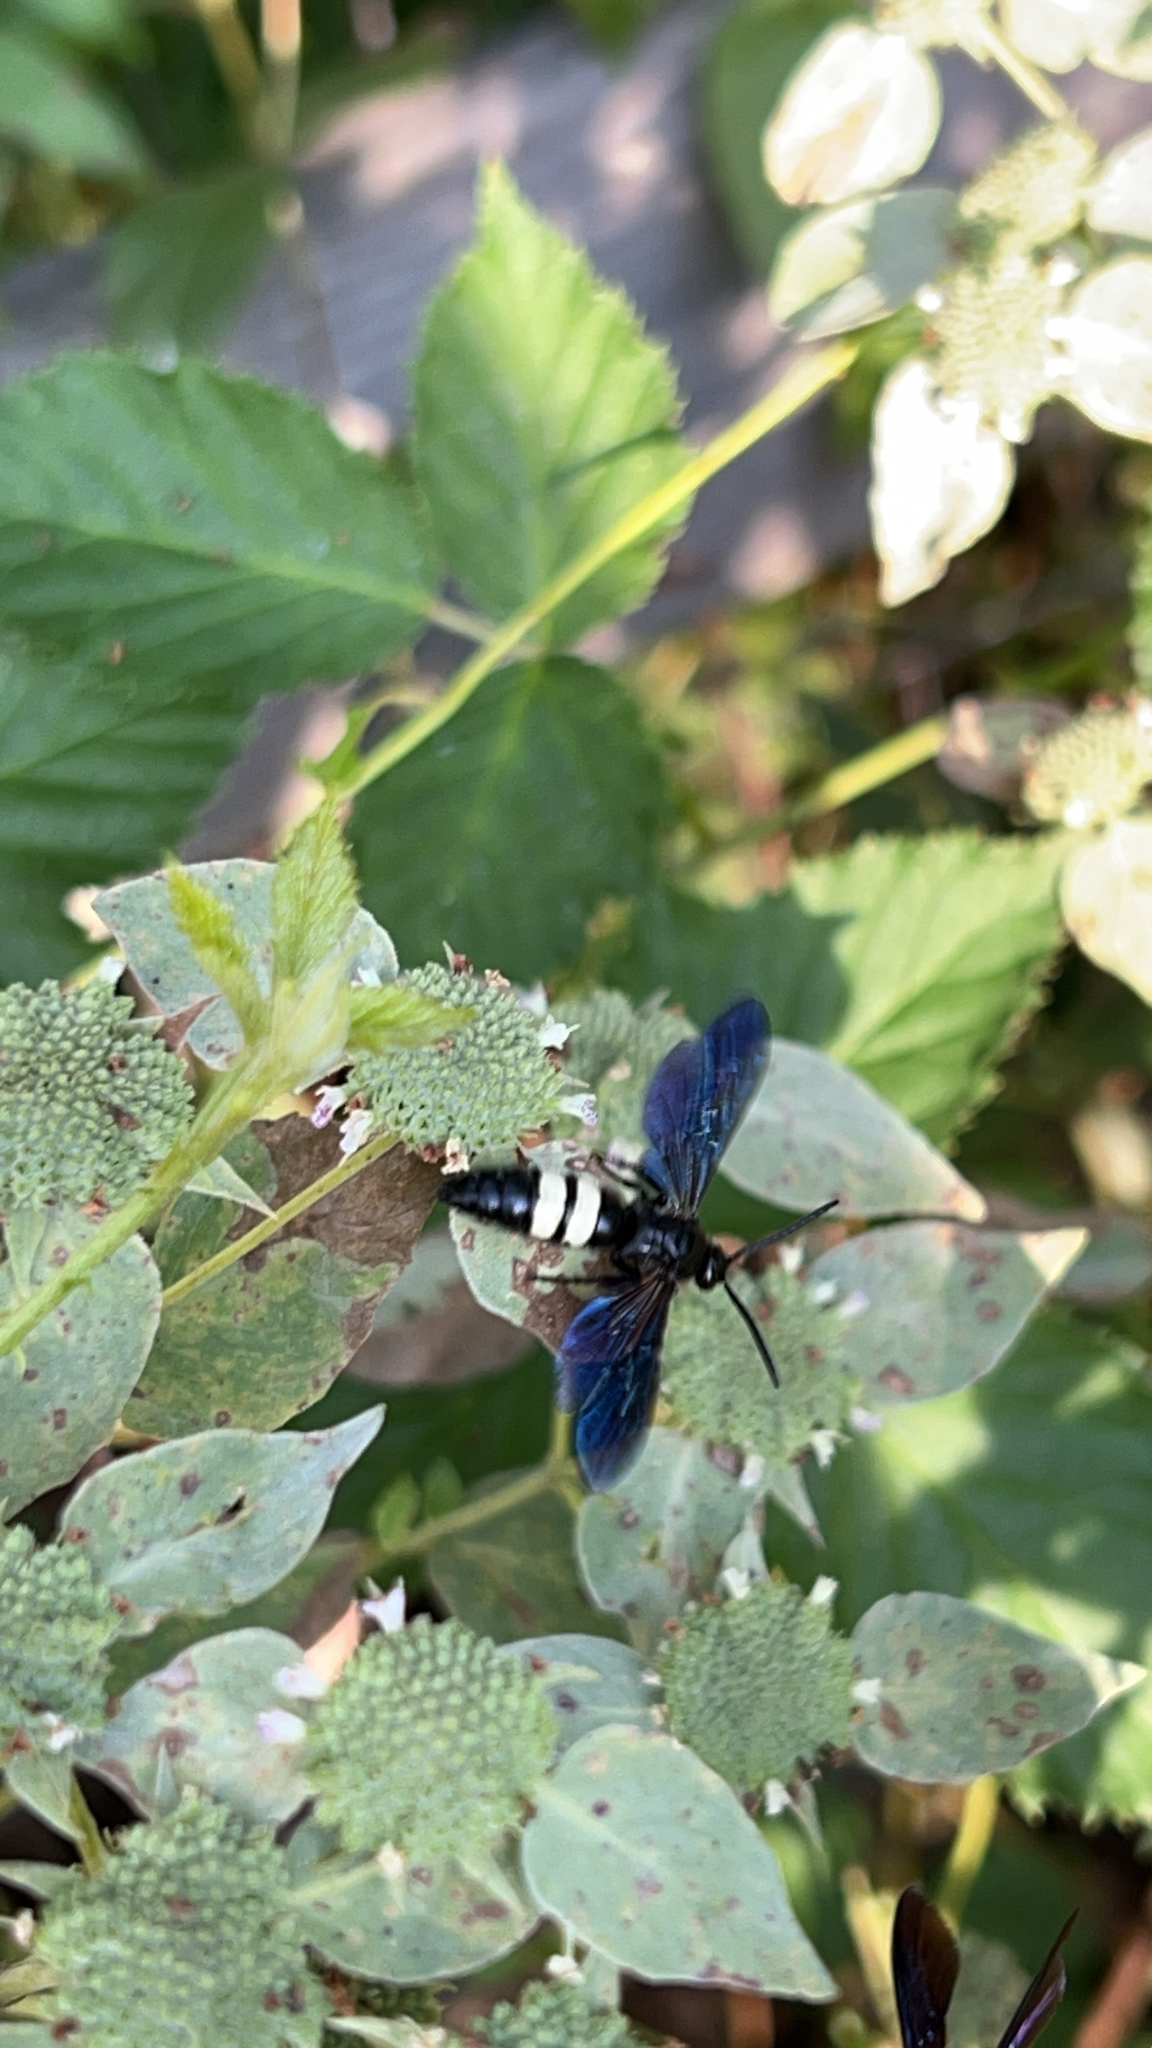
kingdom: Animalia
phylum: Arthropoda
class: Insecta
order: Hymenoptera
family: Scoliidae
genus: Scolia
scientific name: Scolia bicincta
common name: Double-banded scoliid wasp
